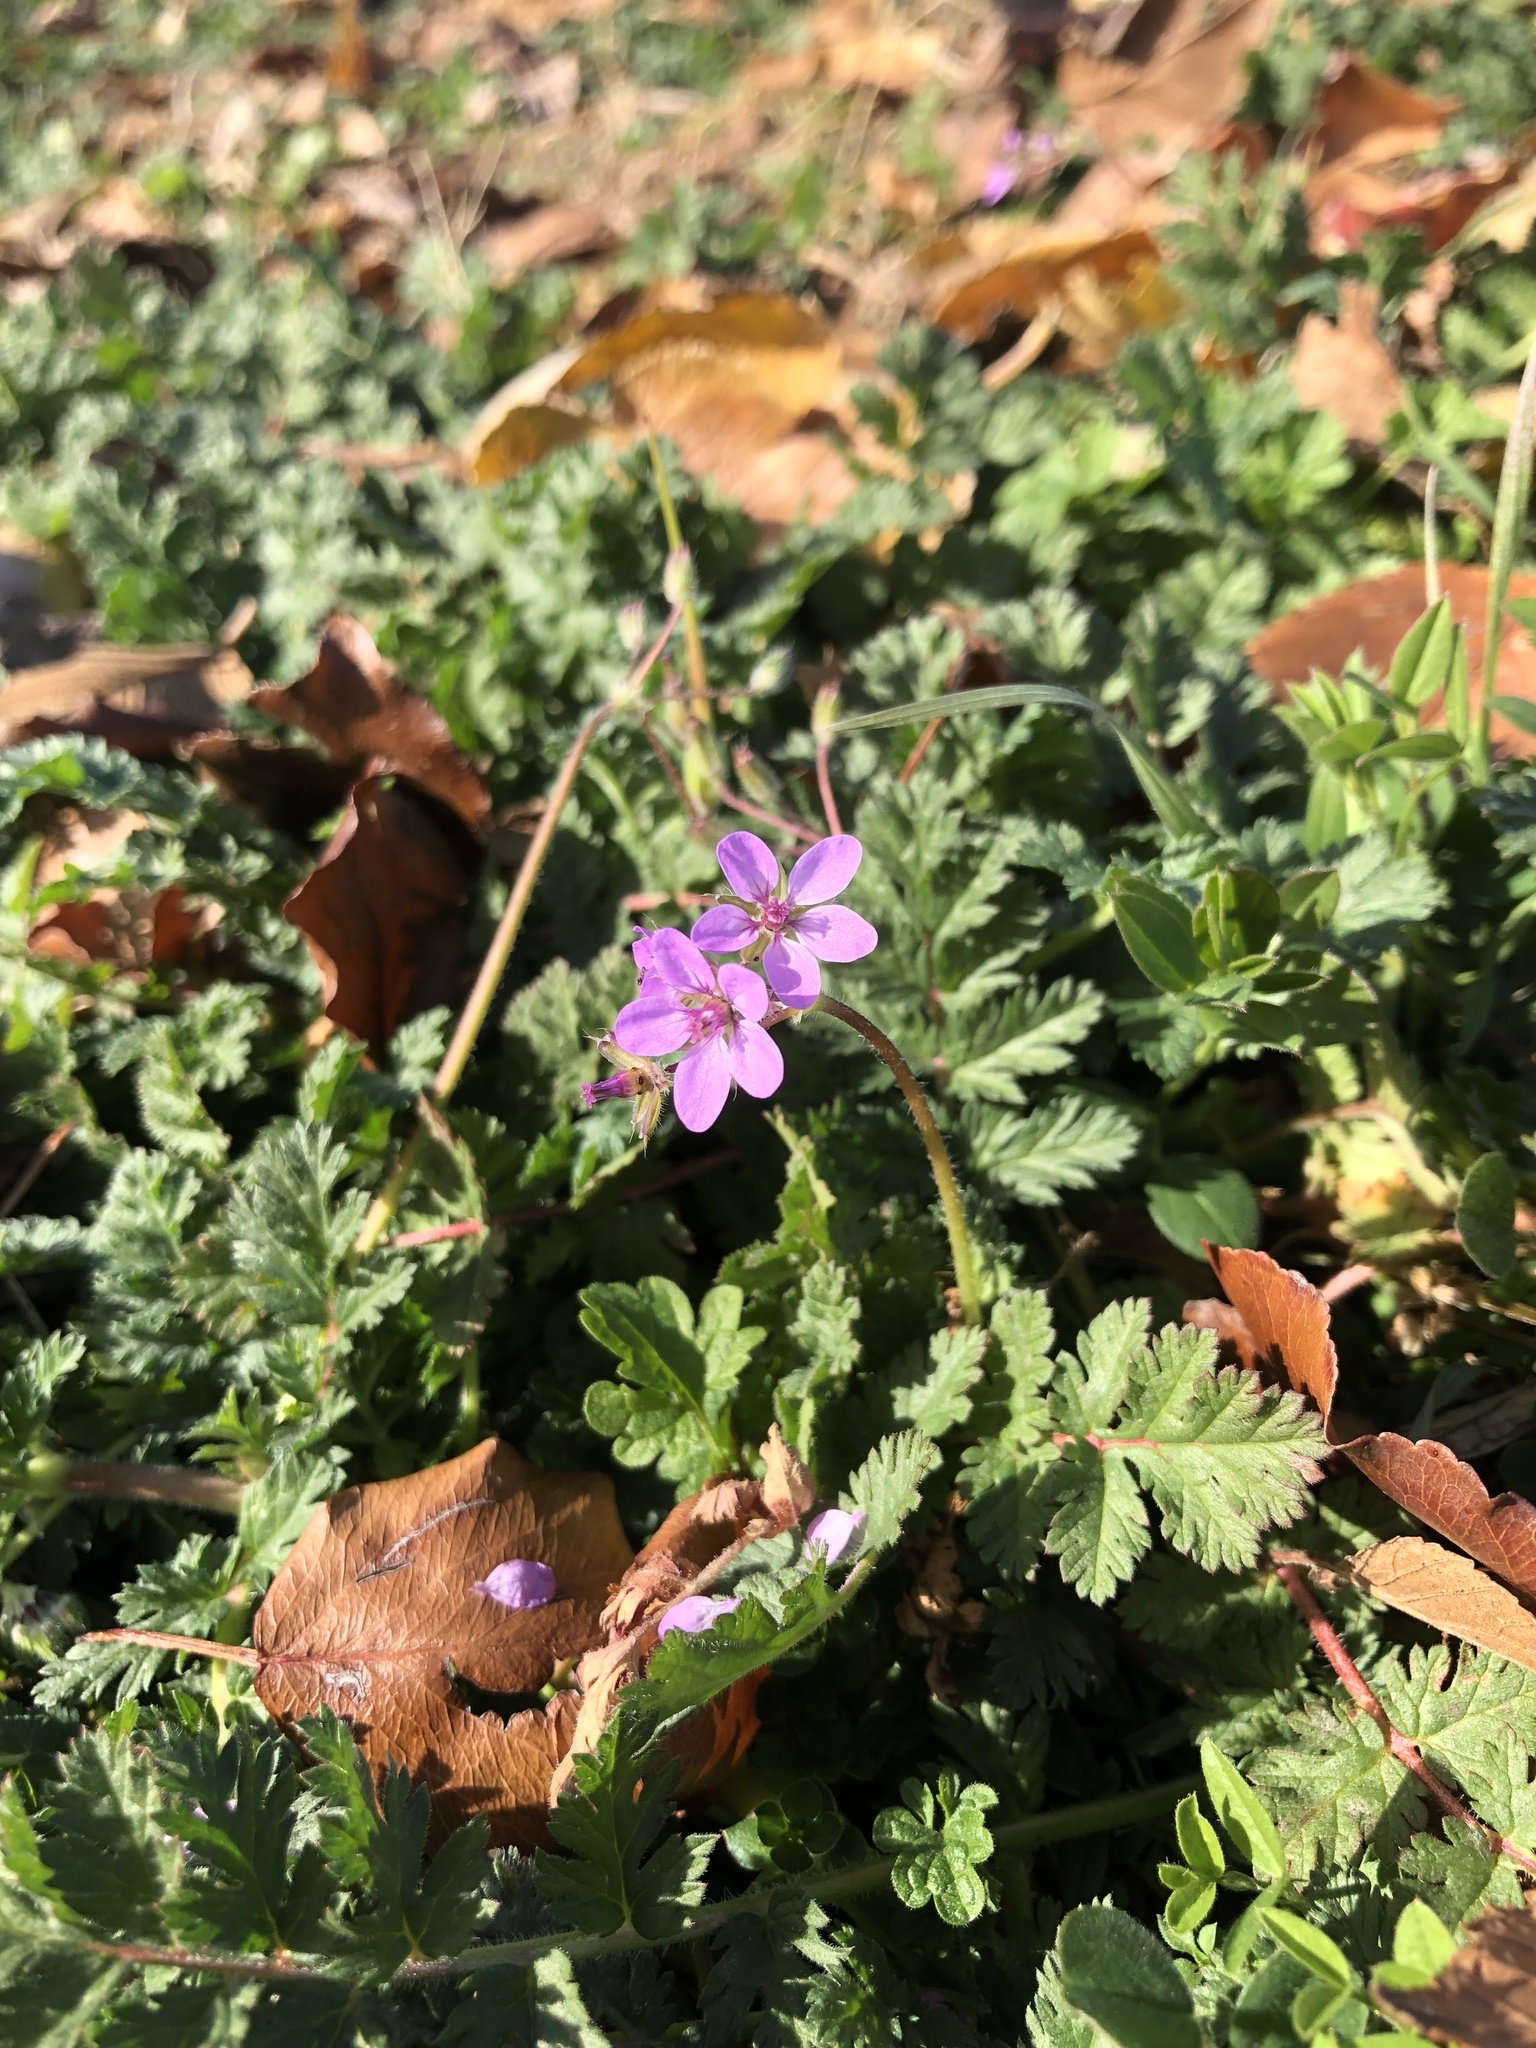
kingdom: Plantae
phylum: Tracheophyta
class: Magnoliopsida
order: Geraniales
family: Geraniaceae
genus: Erodium
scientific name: Erodium cicutarium
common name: Common stork's-bill
